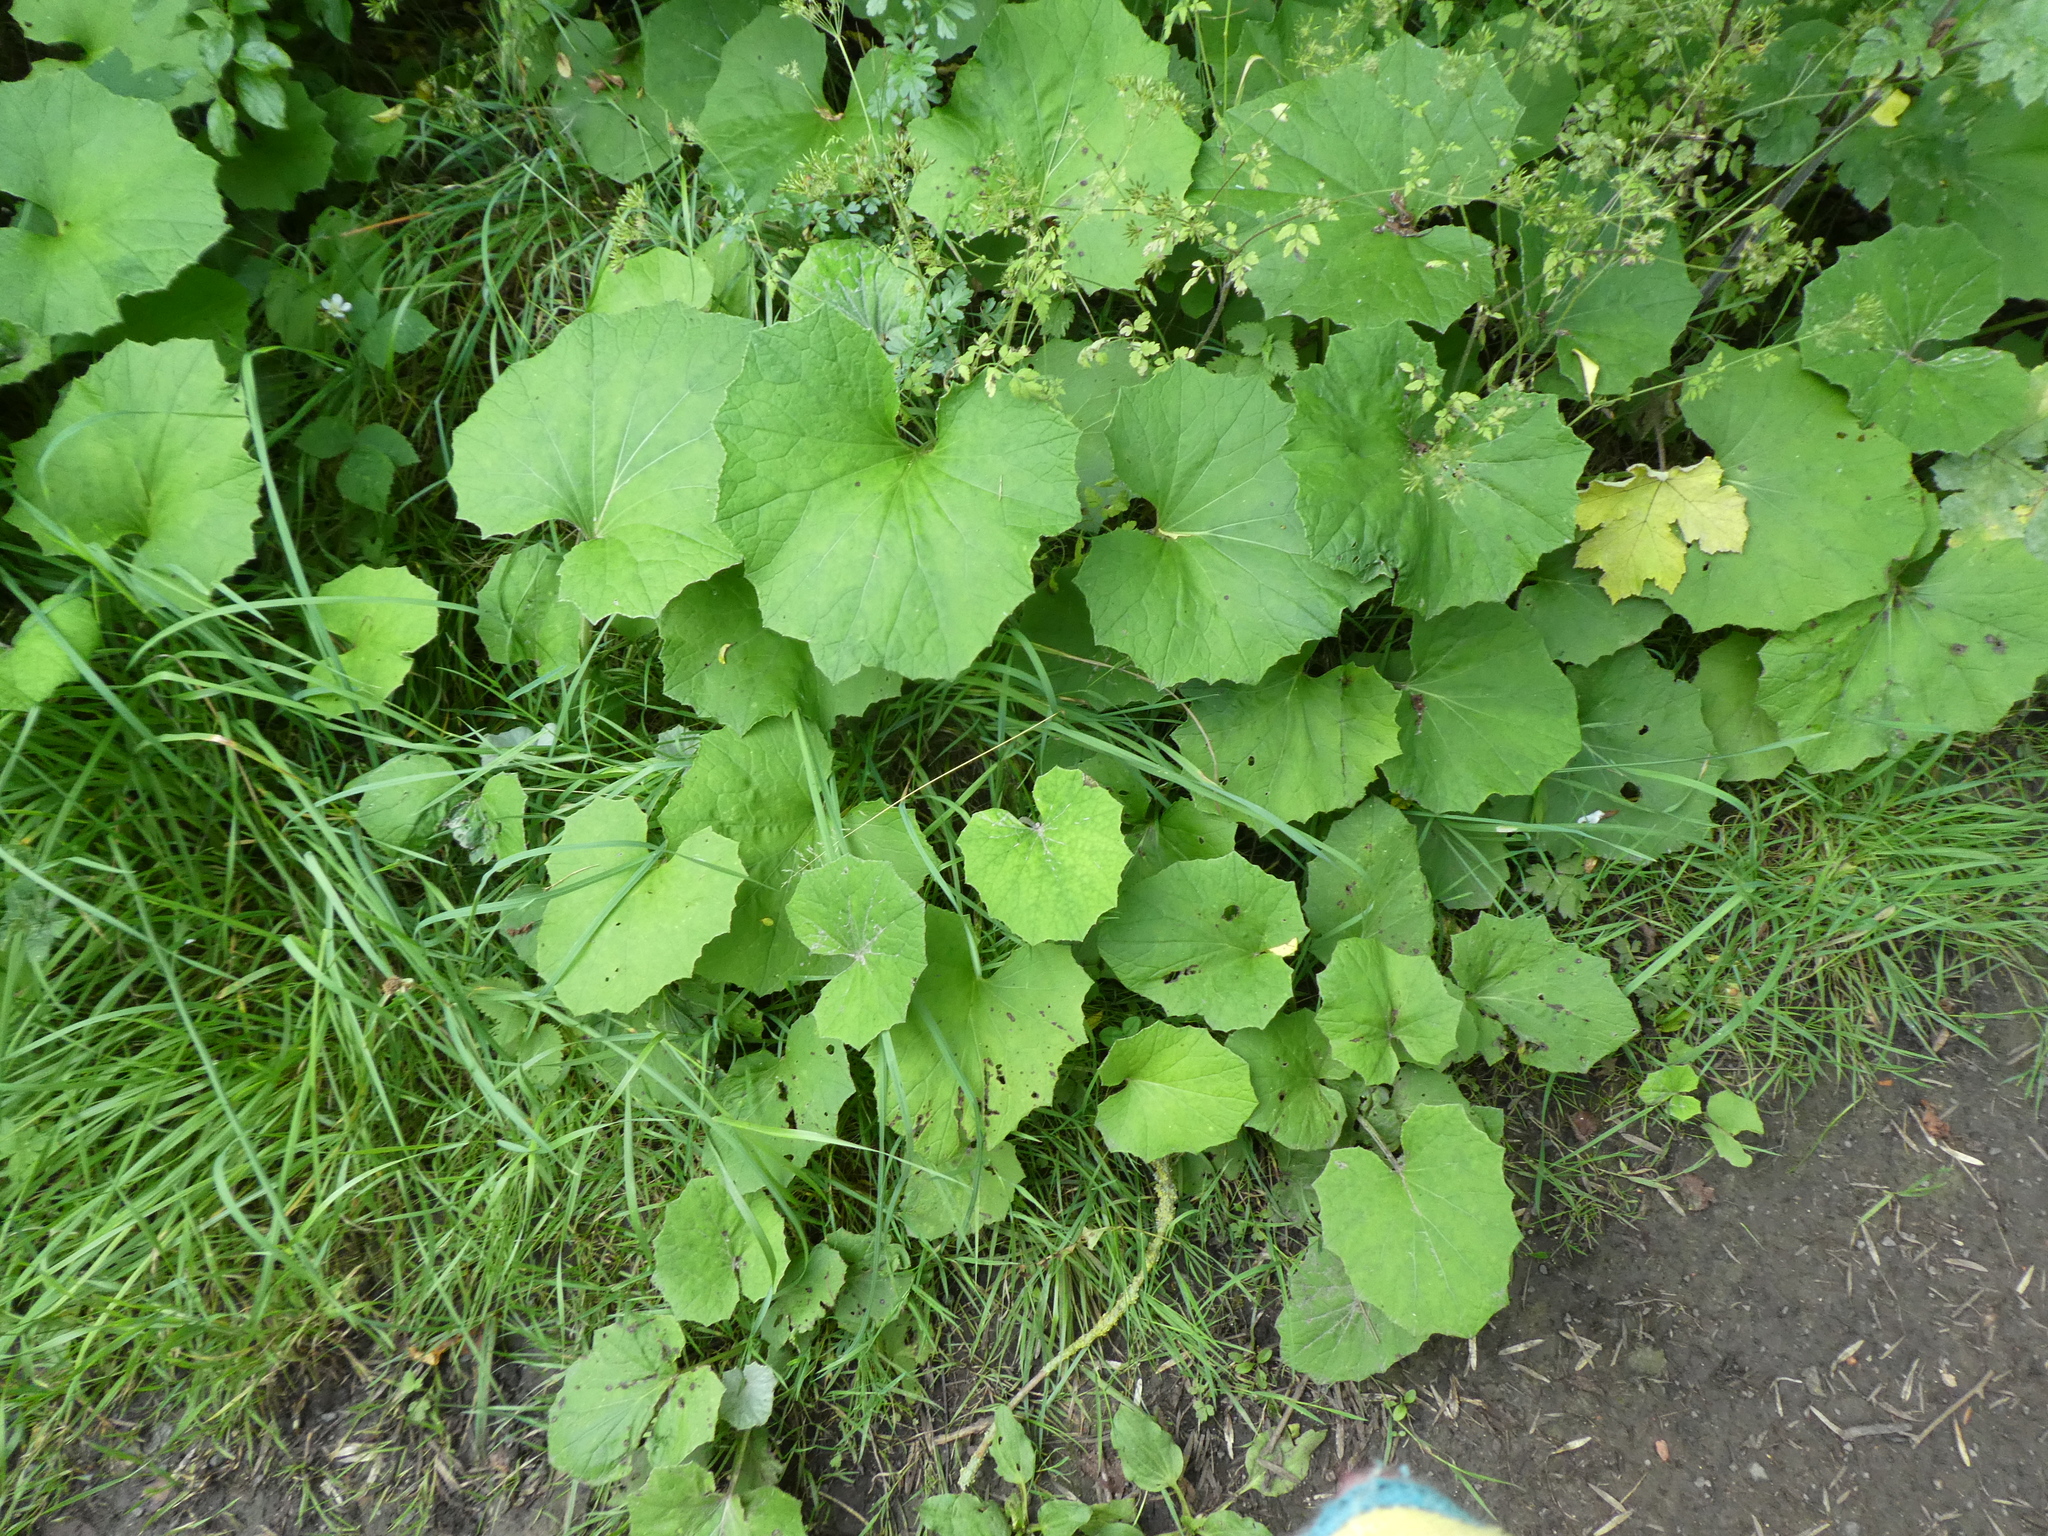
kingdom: Plantae
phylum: Tracheophyta
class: Magnoliopsida
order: Asterales
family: Asteraceae
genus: Tussilago
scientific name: Tussilago farfara
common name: Coltsfoot
